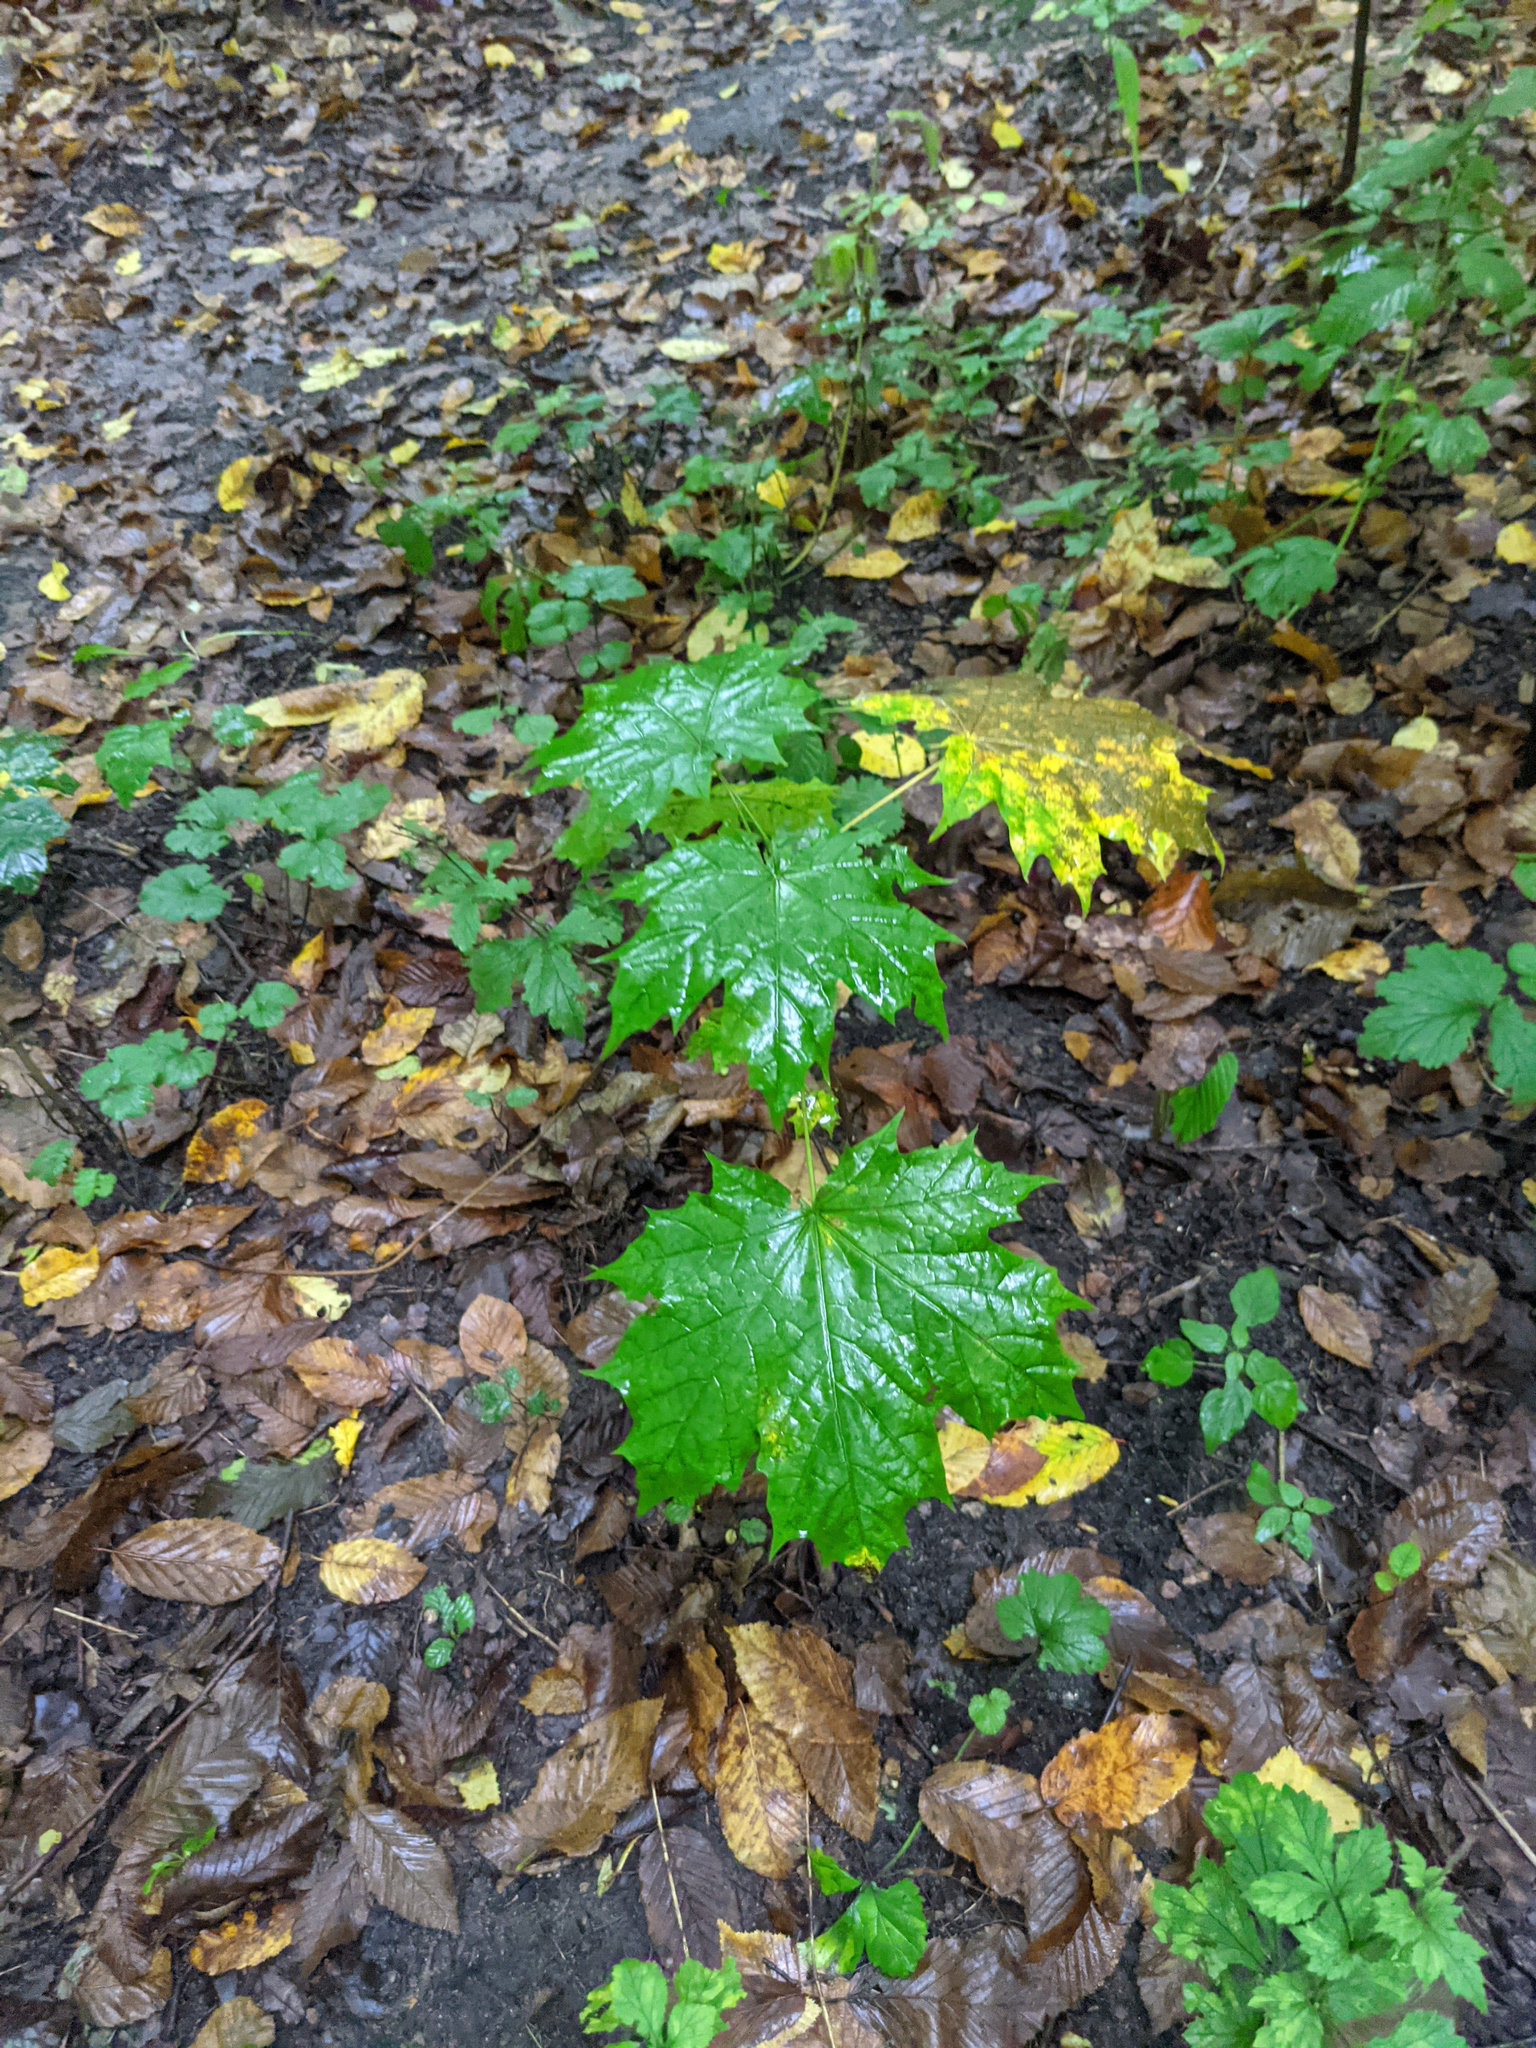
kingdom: Plantae
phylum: Tracheophyta
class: Magnoliopsida
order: Sapindales
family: Sapindaceae
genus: Acer
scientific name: Acer platanoides
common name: Norway maple
